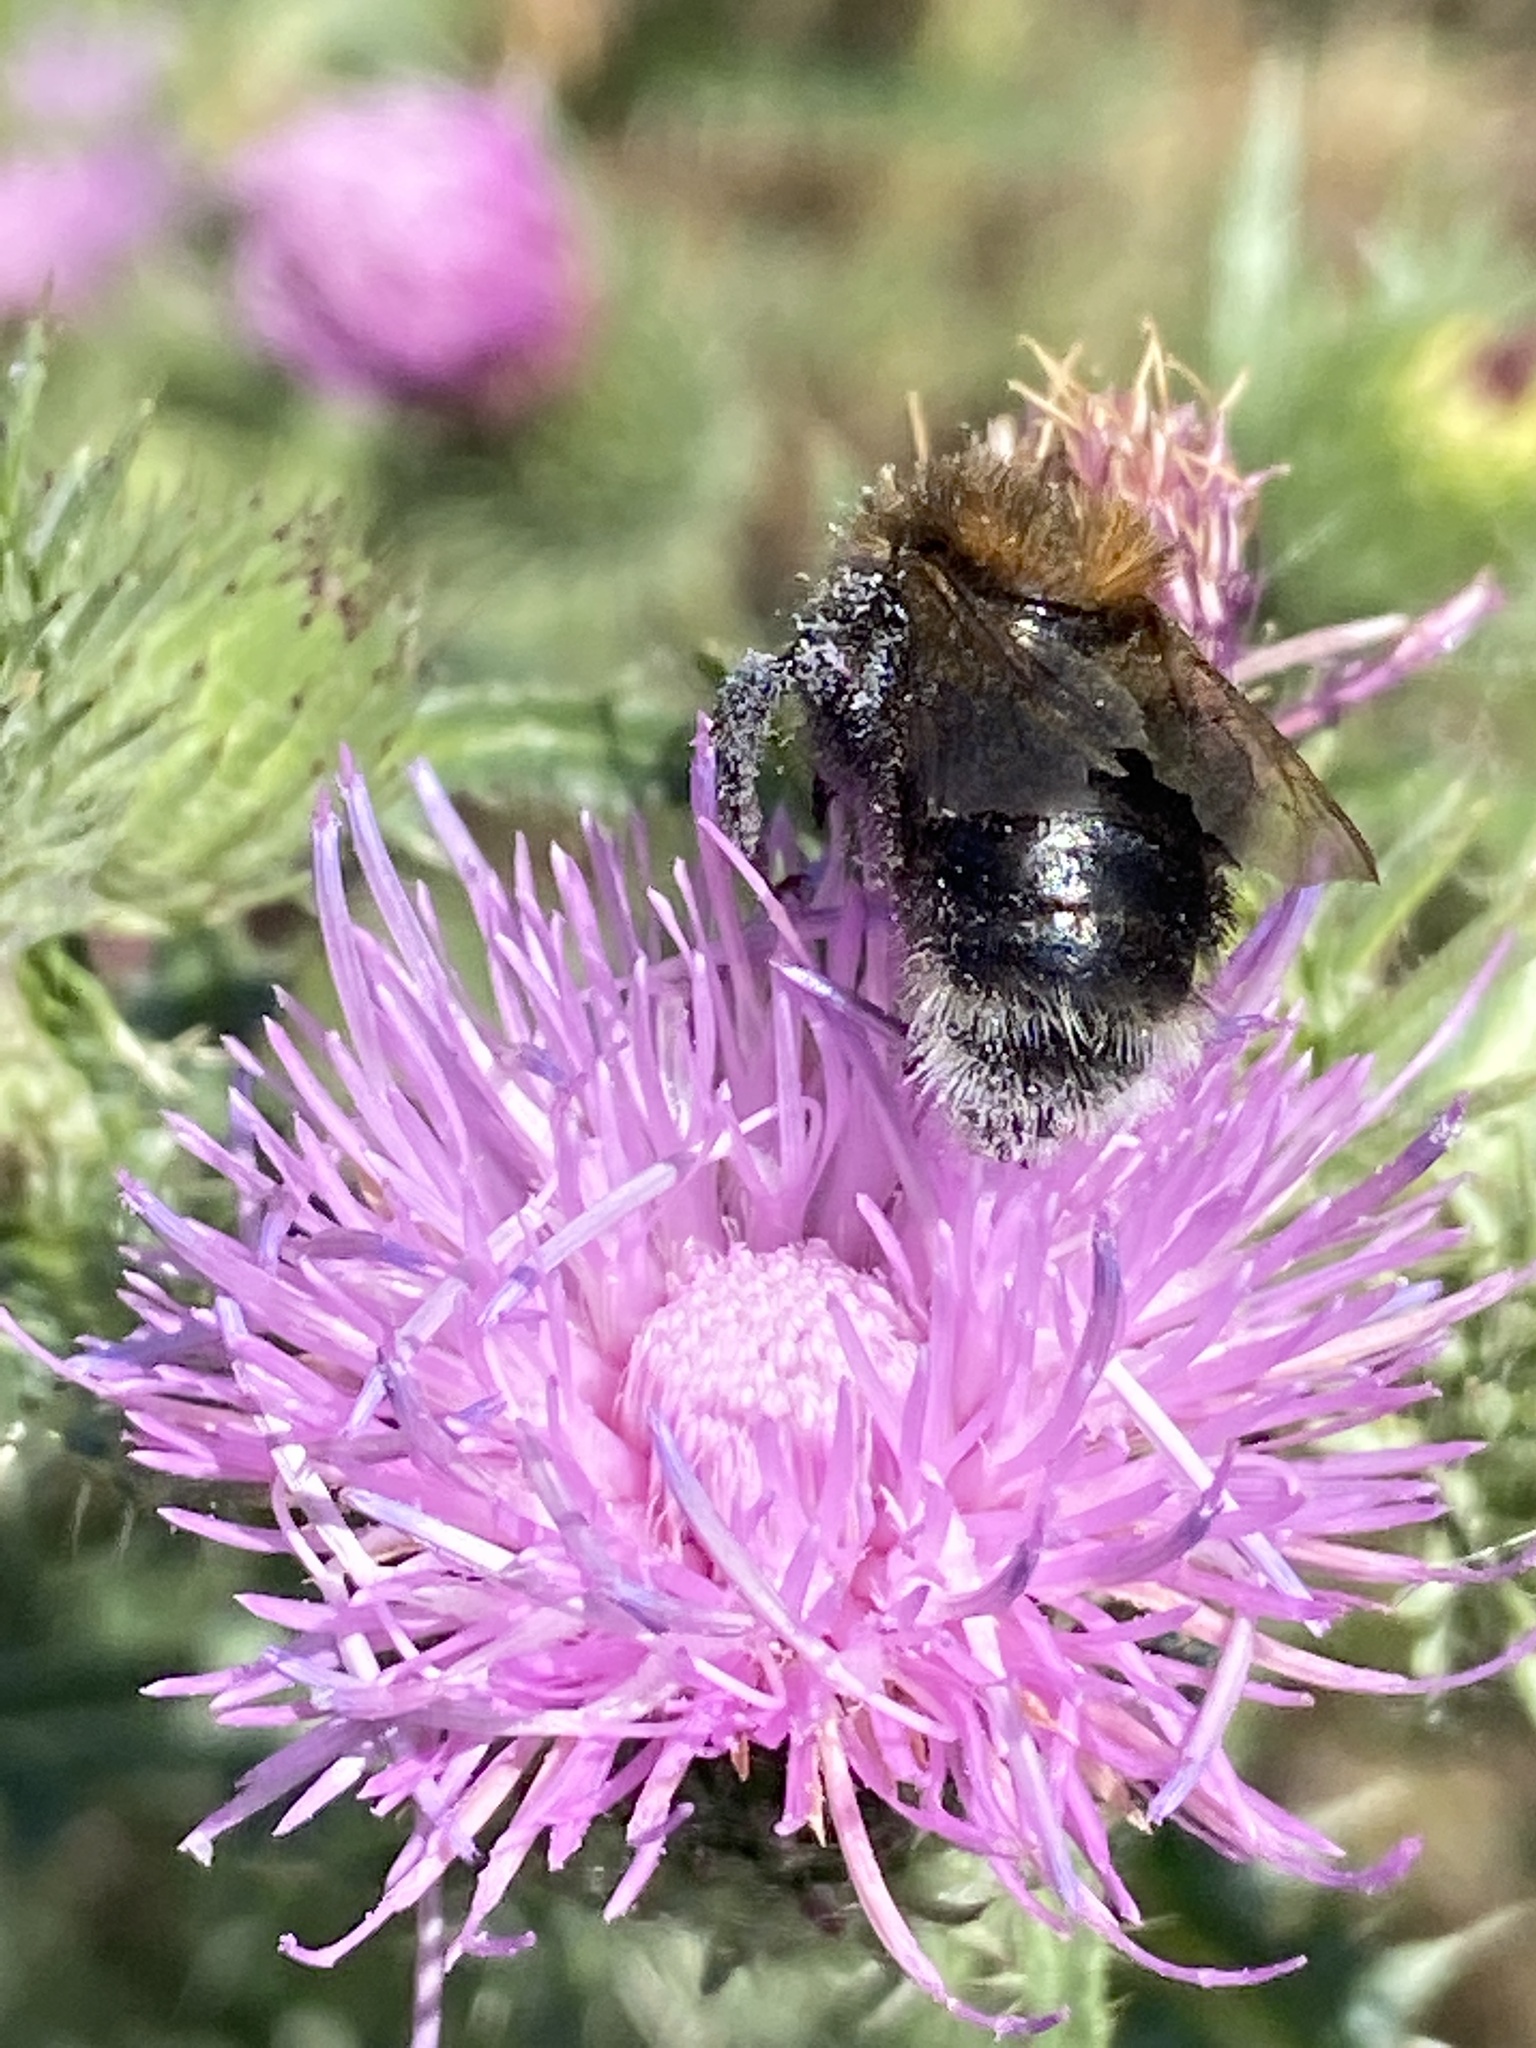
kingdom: Animalia
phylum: Arthropoda
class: Insecta
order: Hymenoptera
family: Apidae
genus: Bombus
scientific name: Bombus hypnorum
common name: New garden bumblebee
